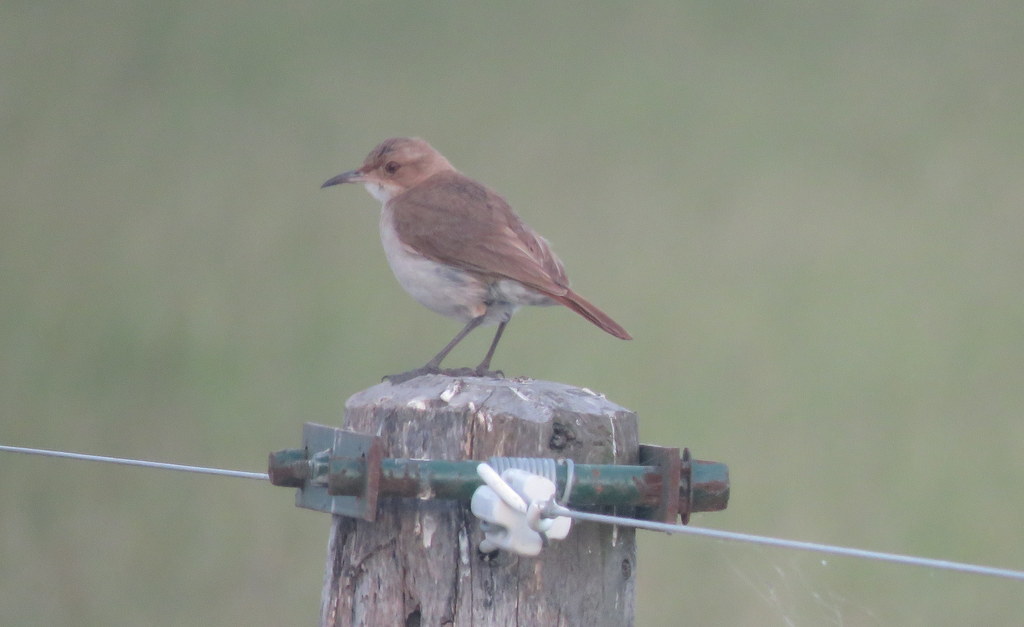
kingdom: Animalia
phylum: Chordata
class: Aves
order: Passeriformes
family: Furnariidae
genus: Furnarius
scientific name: Furnarius rufus
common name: Rufous hornero
